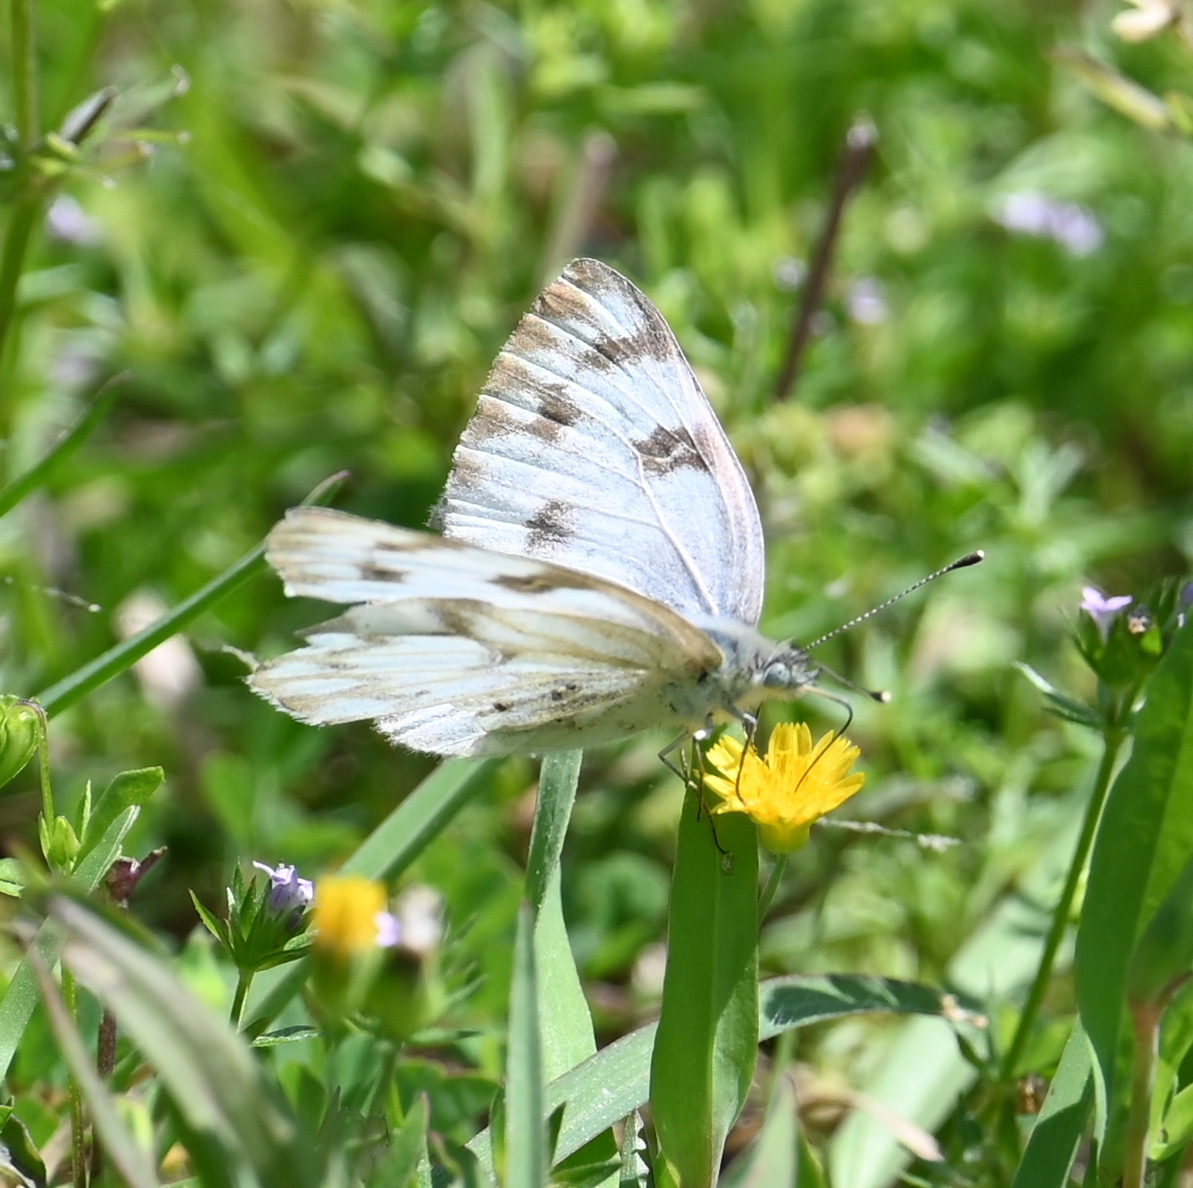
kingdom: Animalia
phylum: Arthropoda
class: Insecta
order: Lepidoptera
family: Pieridae
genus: Pontia
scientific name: Pontia protodice
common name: Checkered white
